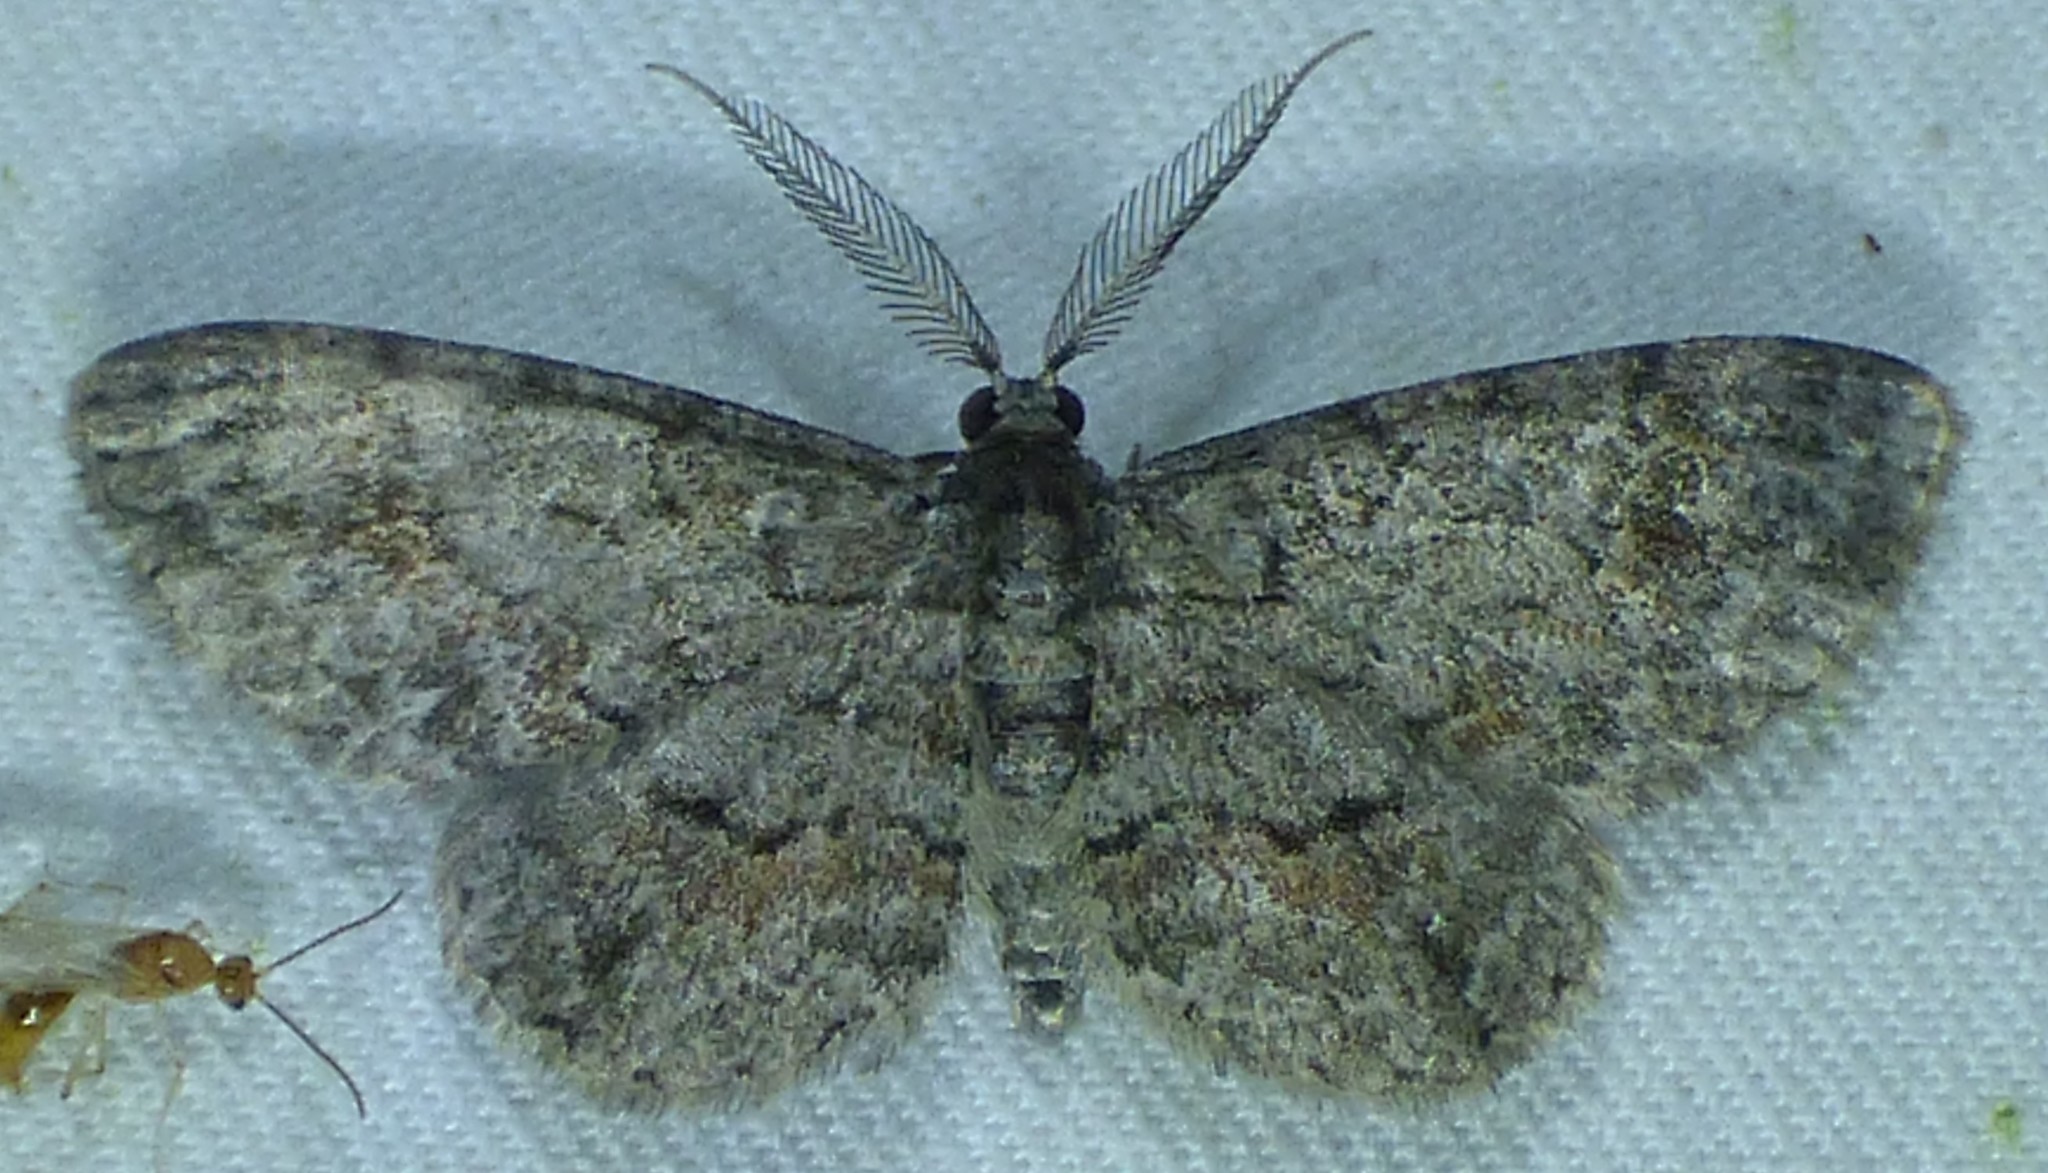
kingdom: Animalia
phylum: Arthropoda
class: Insecta
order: Lepidoptera
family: Geometridae
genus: Glenoides
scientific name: Glenoides texanaria
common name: Texas gray
